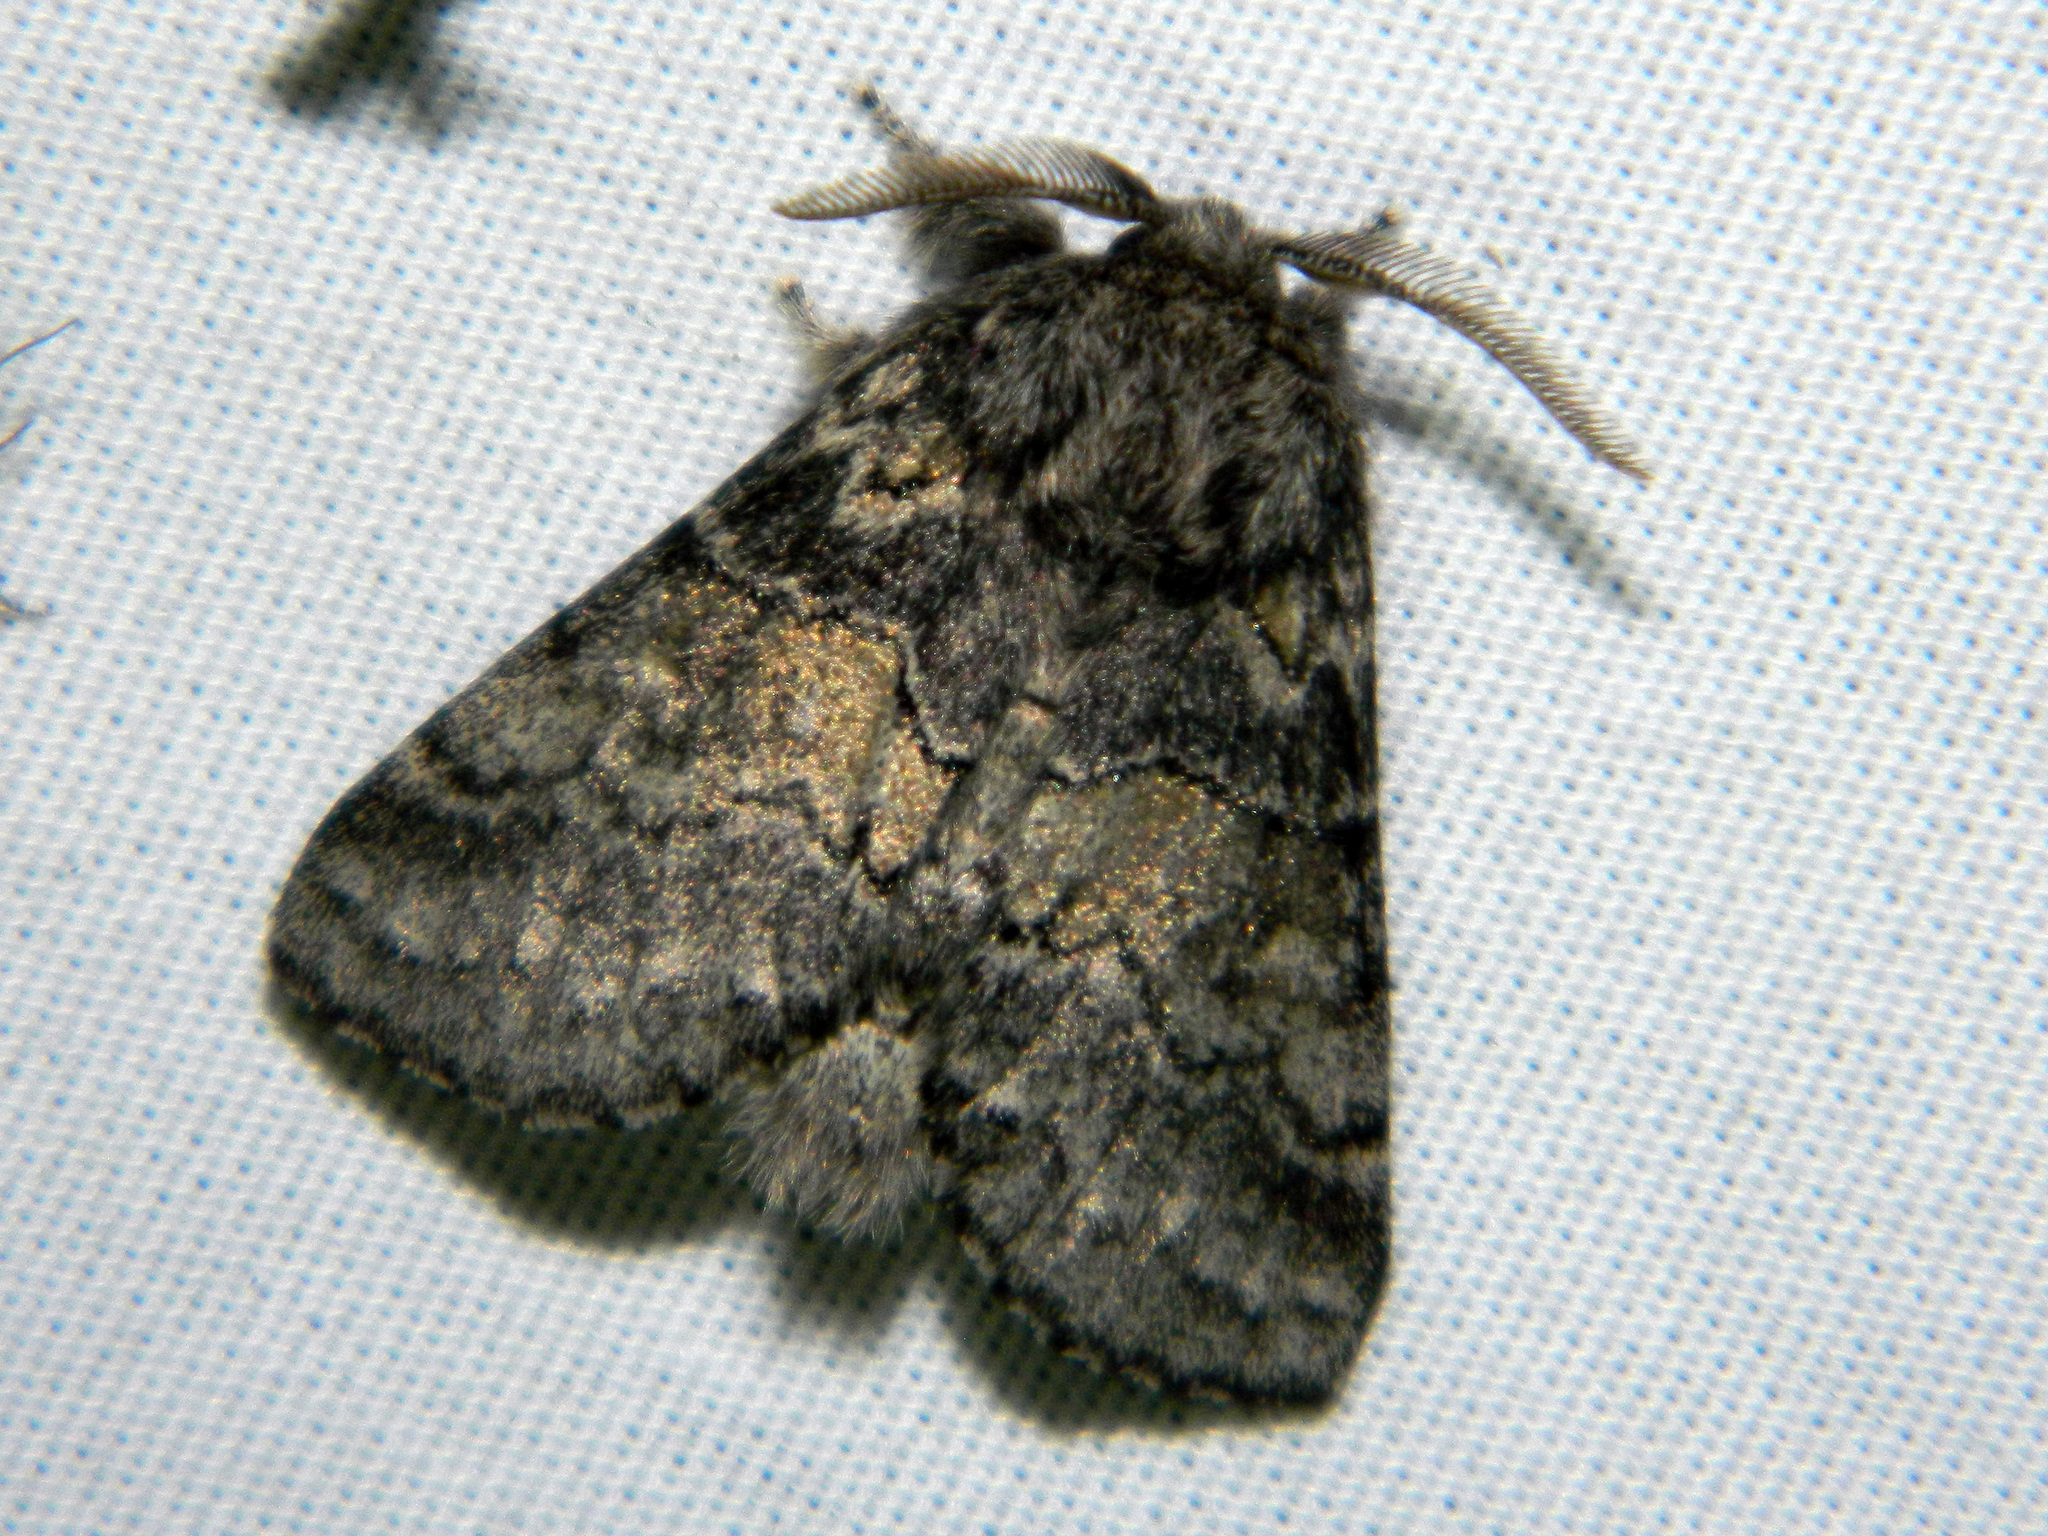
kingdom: Animalia
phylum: Arthropoda
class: Insecta
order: Lepidoptera
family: Notodontidae
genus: Gluphisia
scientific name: Gluphisia septentrionis
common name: Common gluphisia
